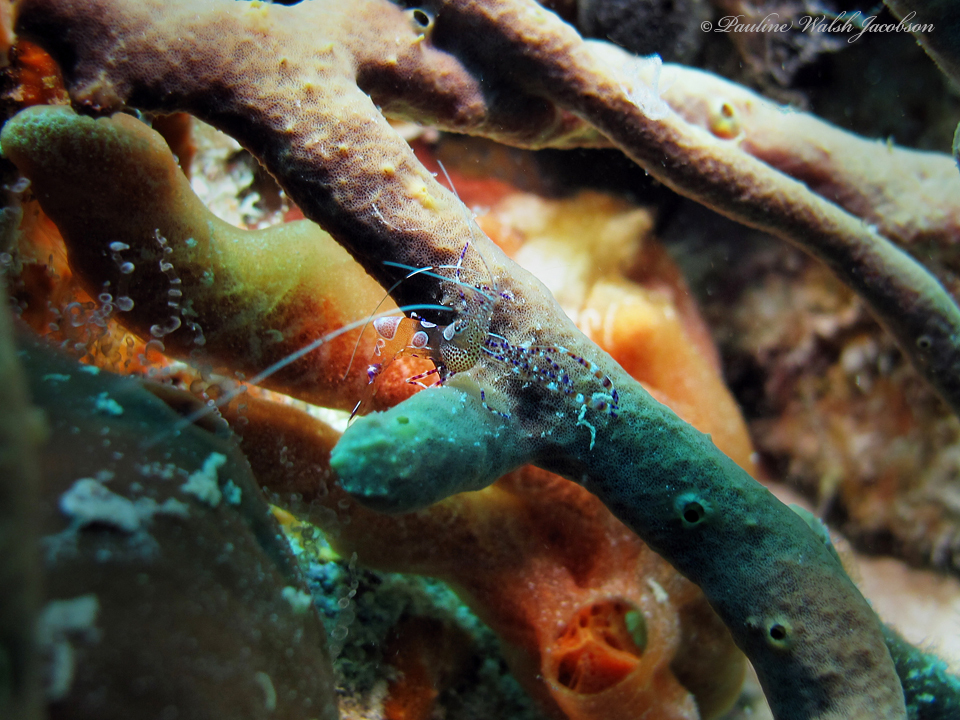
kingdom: Animalia
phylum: Arthropoda
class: Malacostraca
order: Decapoda
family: Palaemonidae
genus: Periclimenes
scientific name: Periclimenes yucatanicus
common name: Spotted cleaning shrimp
